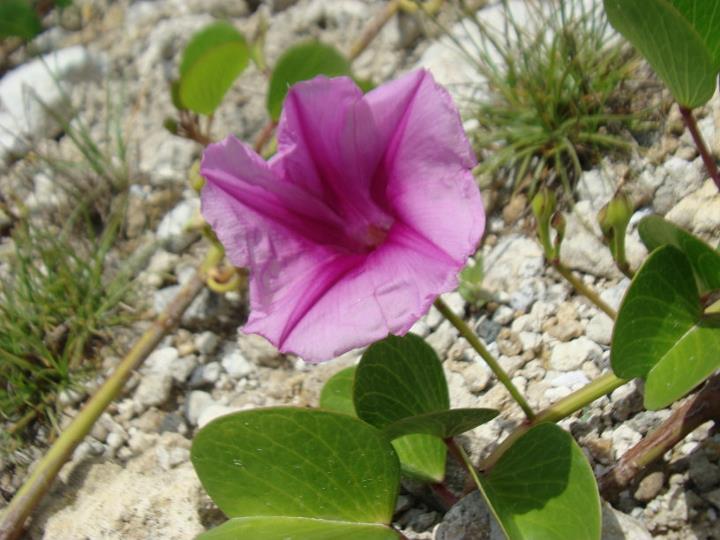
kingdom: Plantae
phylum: Tracheophyta
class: Magnoliopsida
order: Solanales
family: Convolvulaceae
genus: Ipomoea
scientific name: Ipomoea pes-caprae
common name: Beach morning glory
